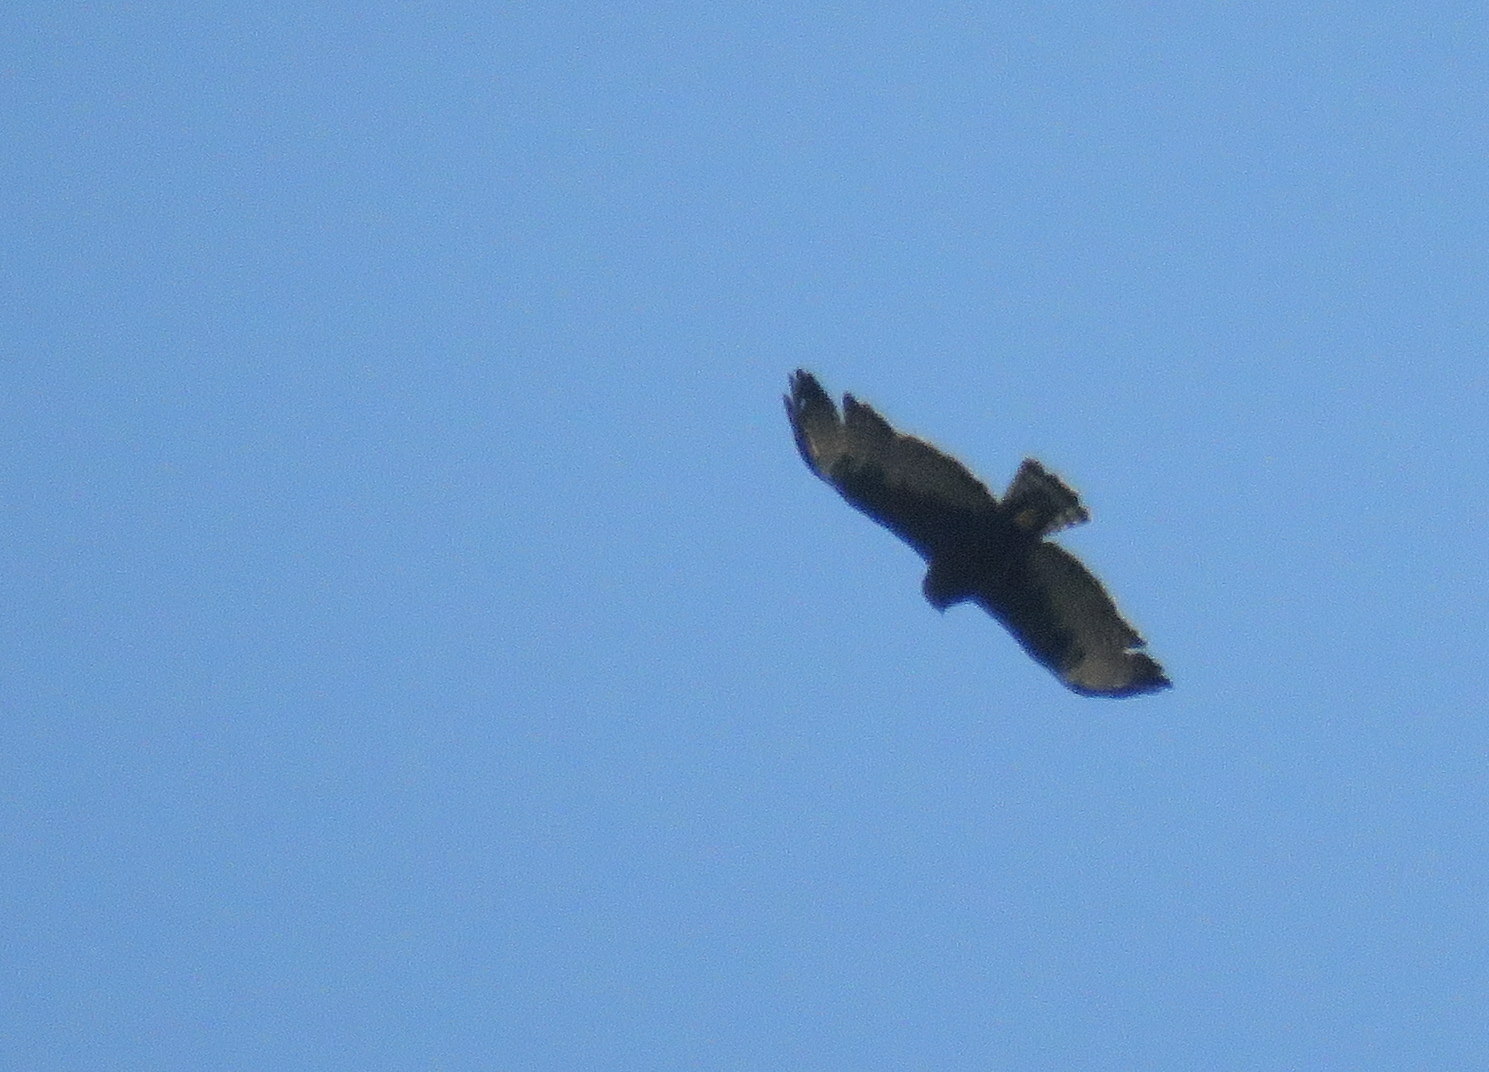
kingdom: Animalia
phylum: Chordata
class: Aves
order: Accipitriformes
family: Accipitridae
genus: Buteo
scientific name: Buteo brachyurus
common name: Short-tailed hawk
